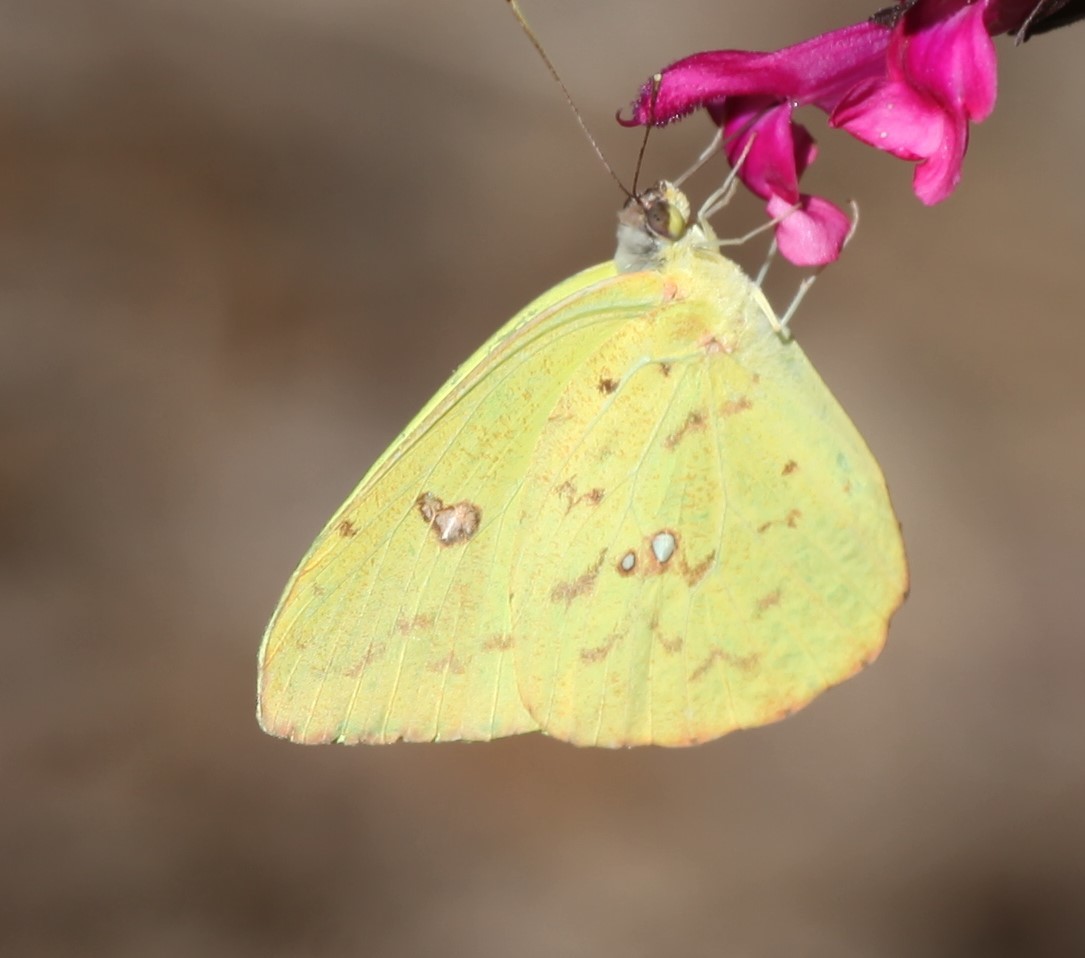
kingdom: Animalia
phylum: Arthropoda
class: Insecta
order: Lepidoptera
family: Pieridae
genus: Phoebis
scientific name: Phoebis sennae
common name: Cloudless sulphur
